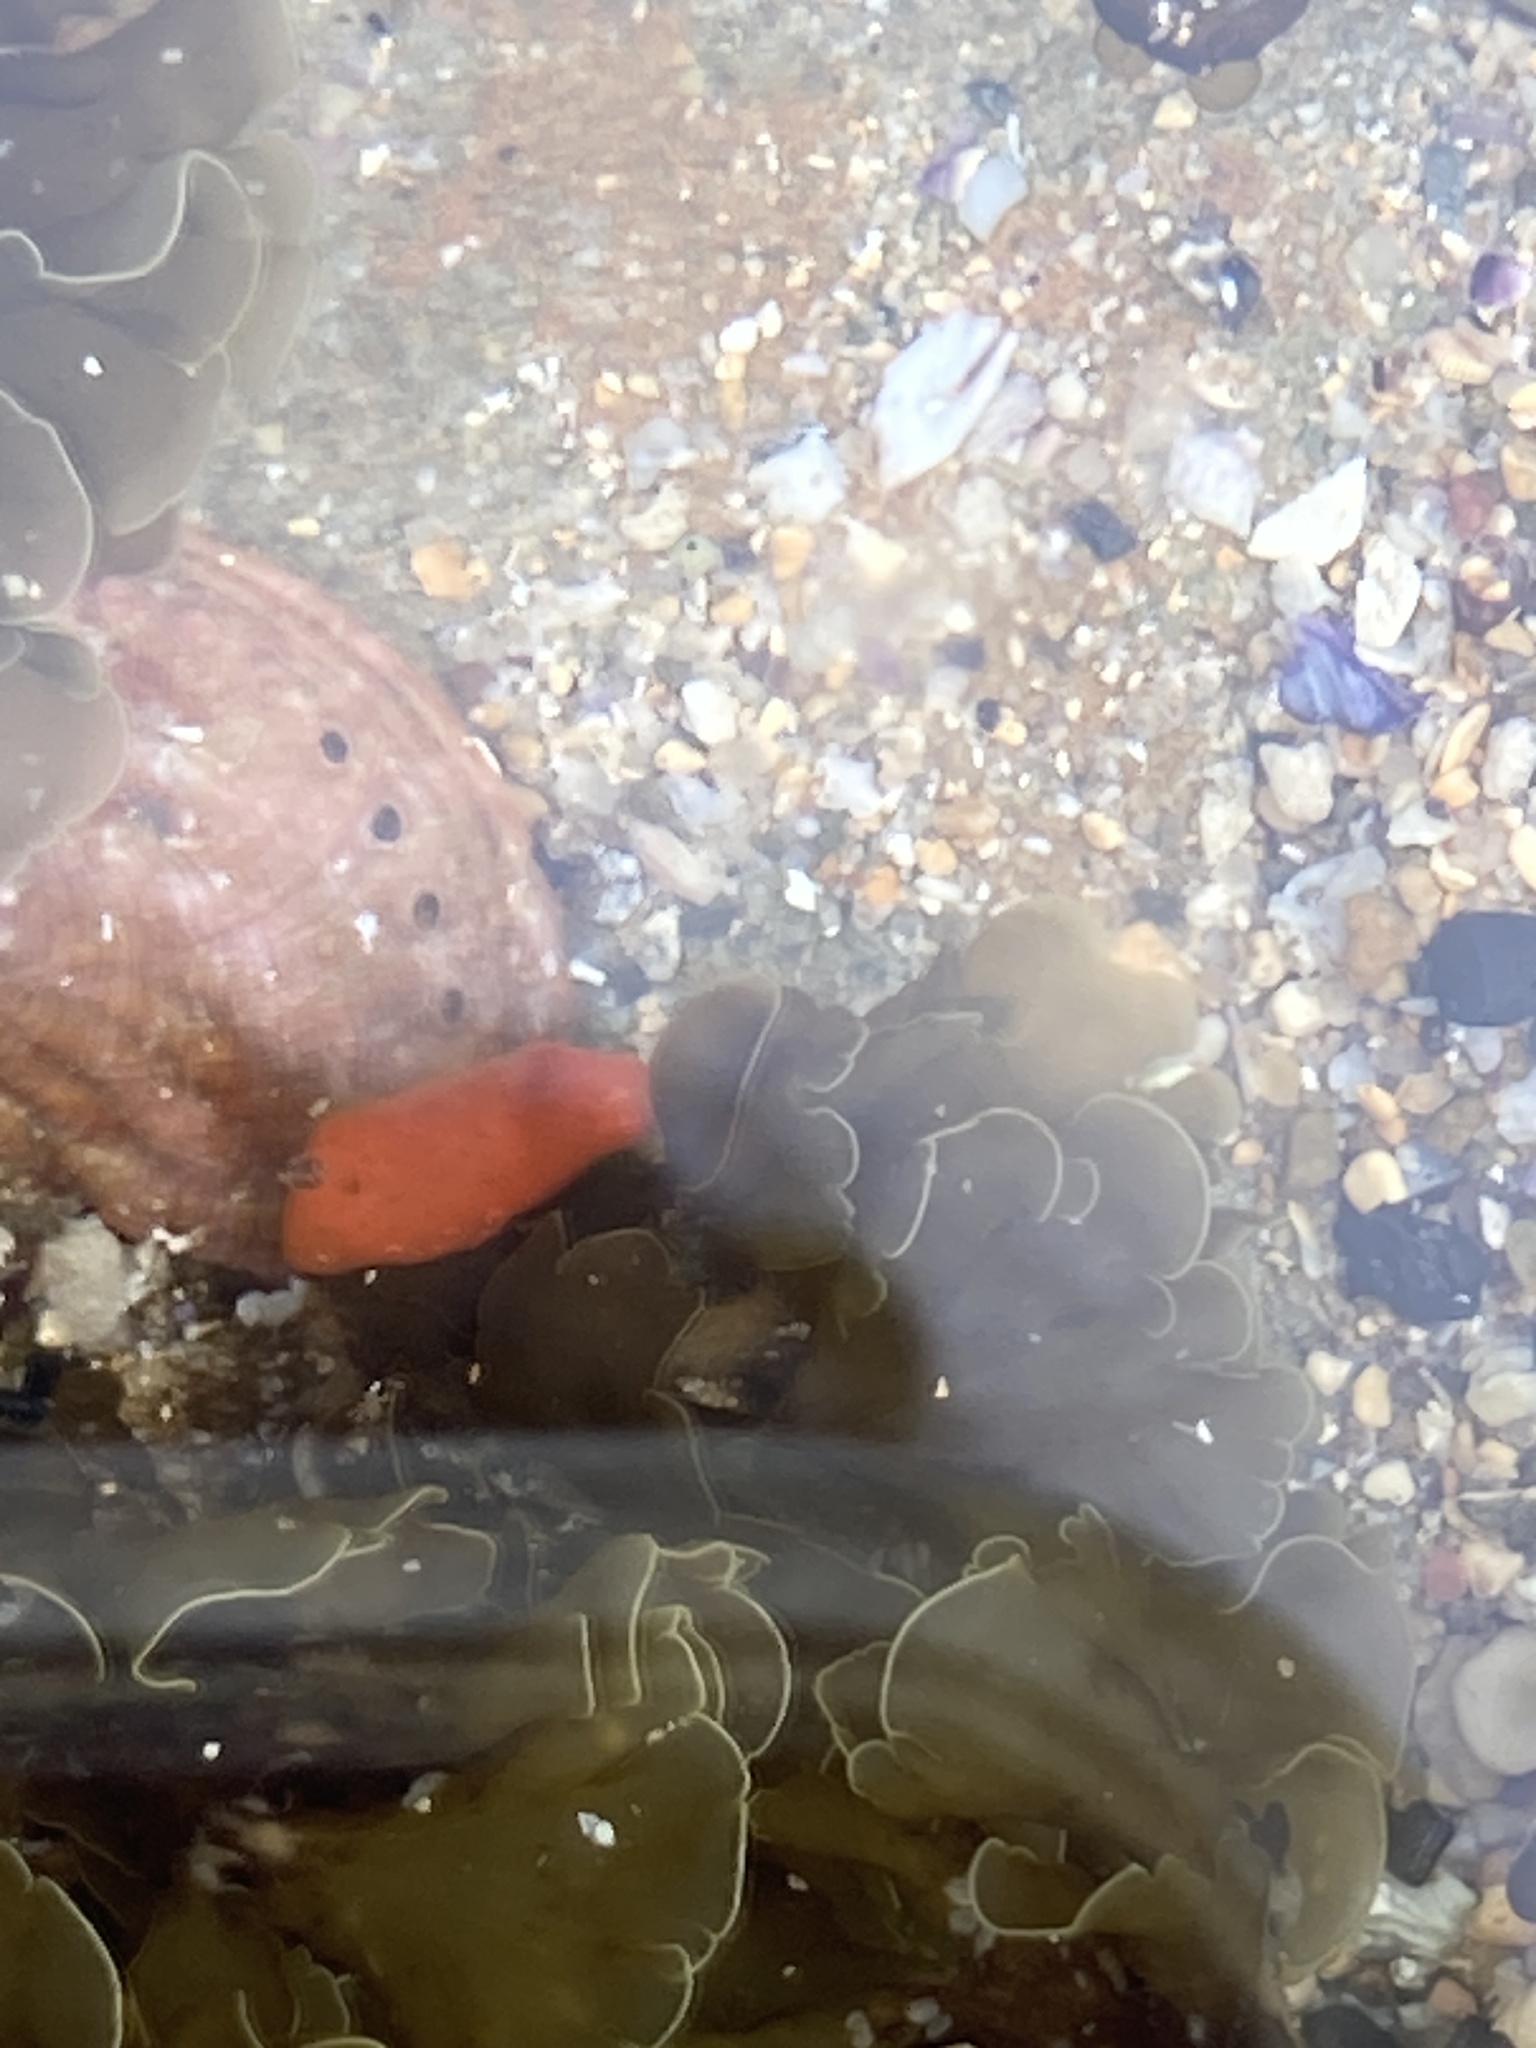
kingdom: Animalia
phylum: Mollusca
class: Gastropoda
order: Nudibranchia
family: Discodorididae
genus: Rostanga
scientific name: Rostanga arbutus
